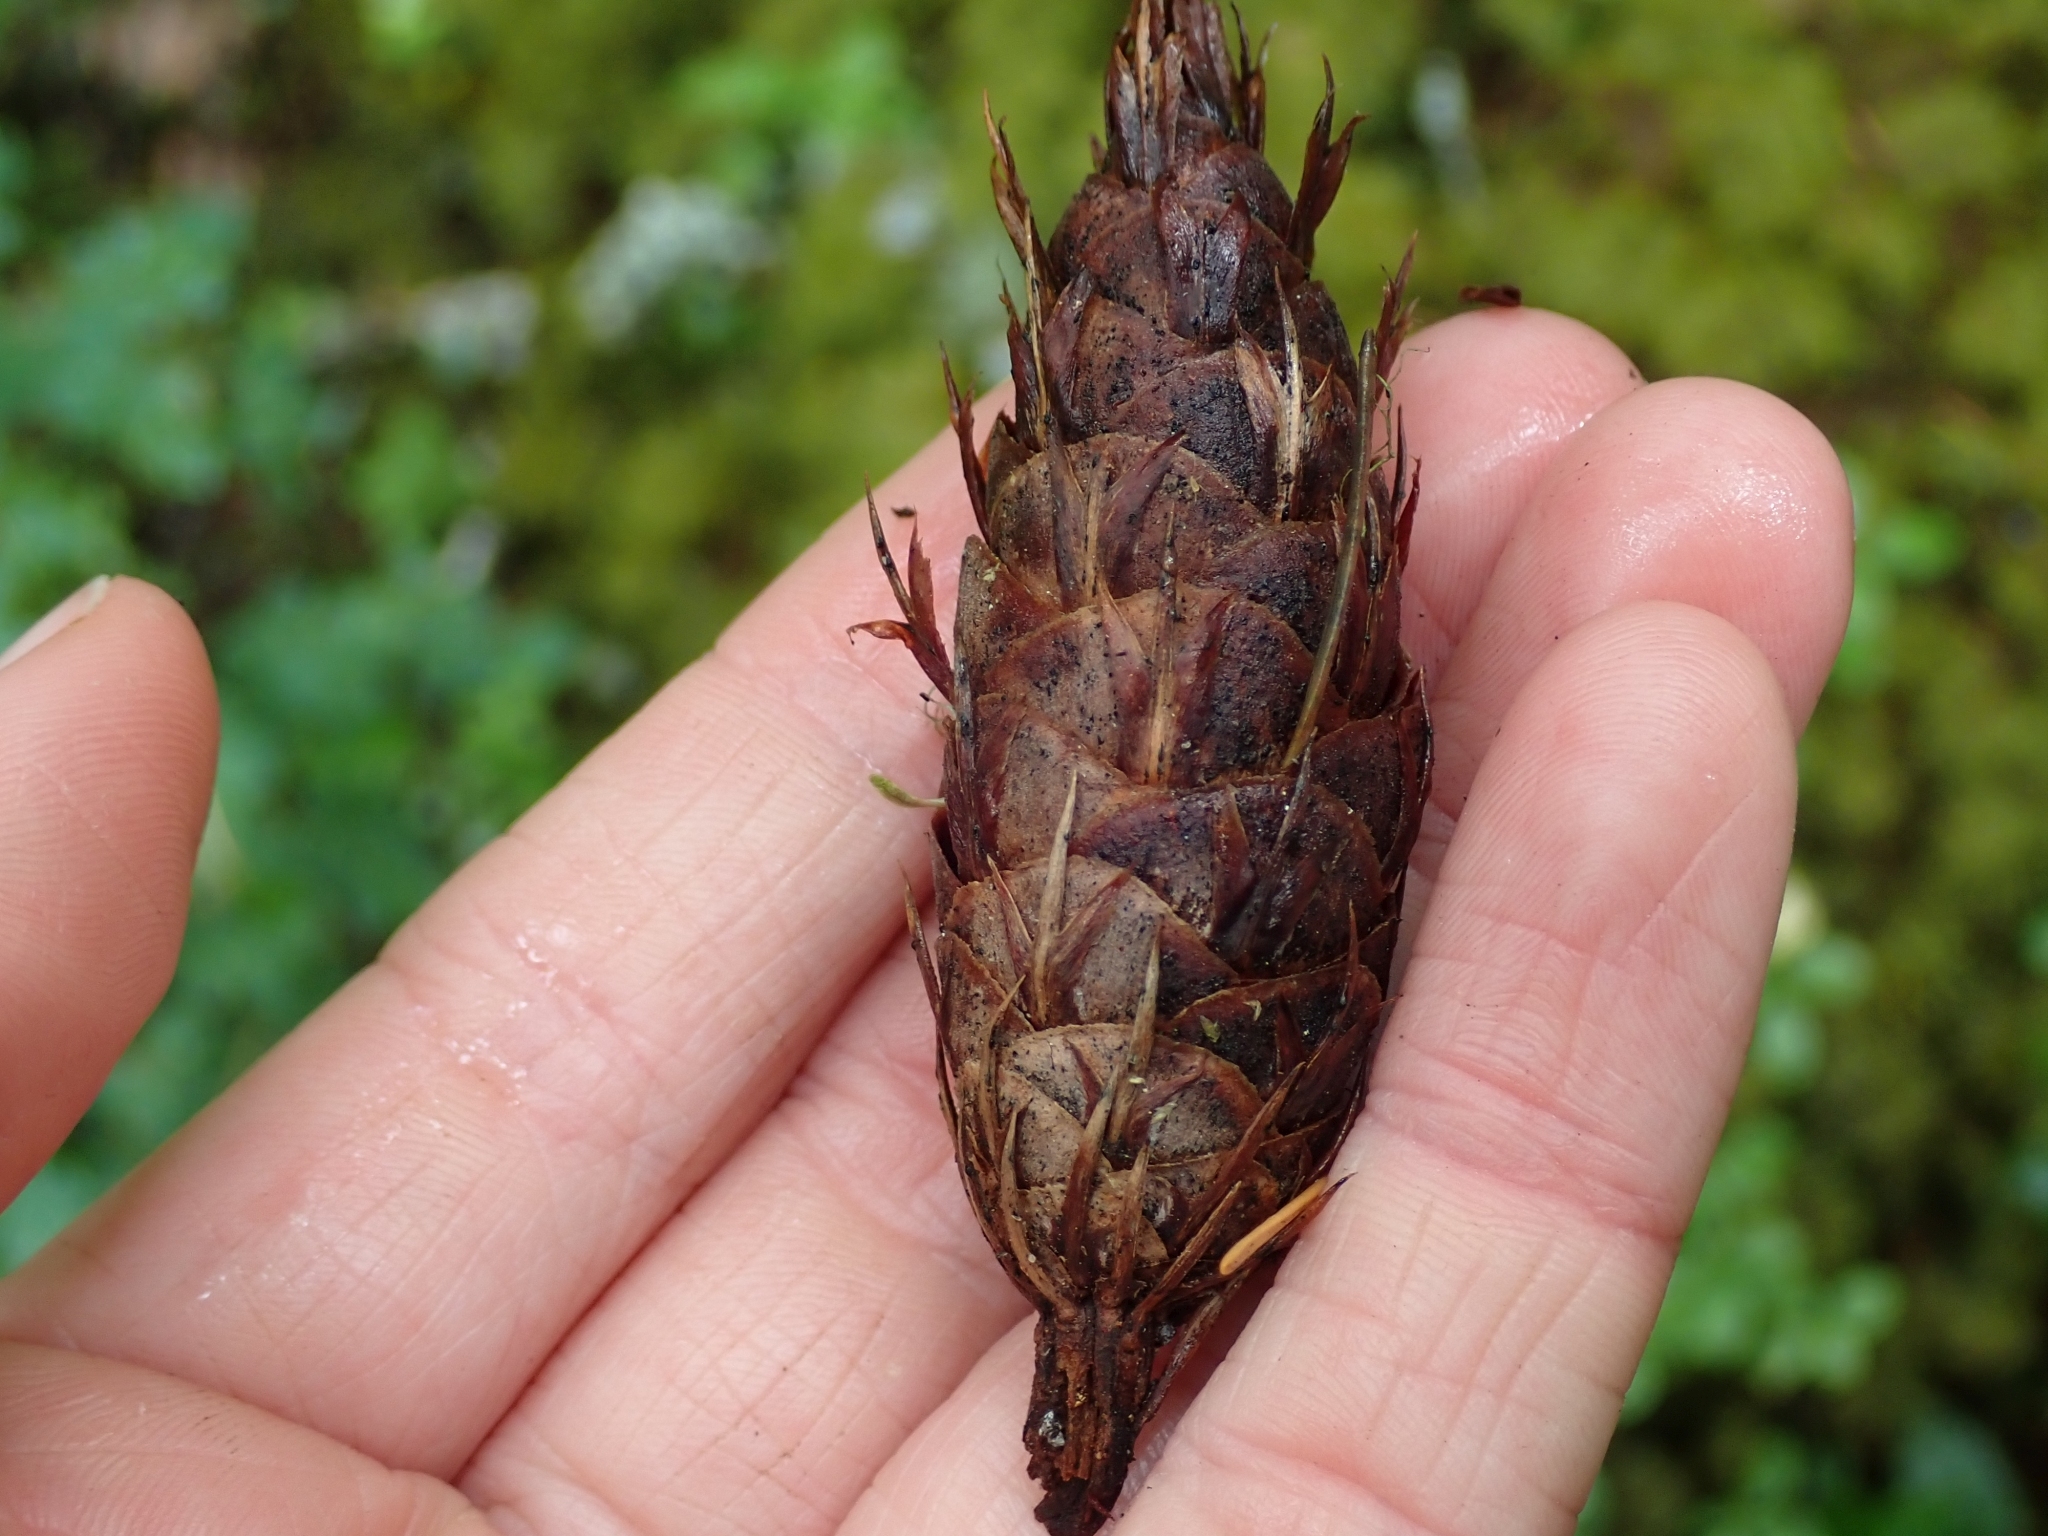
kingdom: Plantae
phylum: Tracheophyta
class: Pinopsida
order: Pinales
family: Pinaceae
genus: Pseudotsuga
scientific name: Pseudotsuga menziesii
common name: Douglas fir
